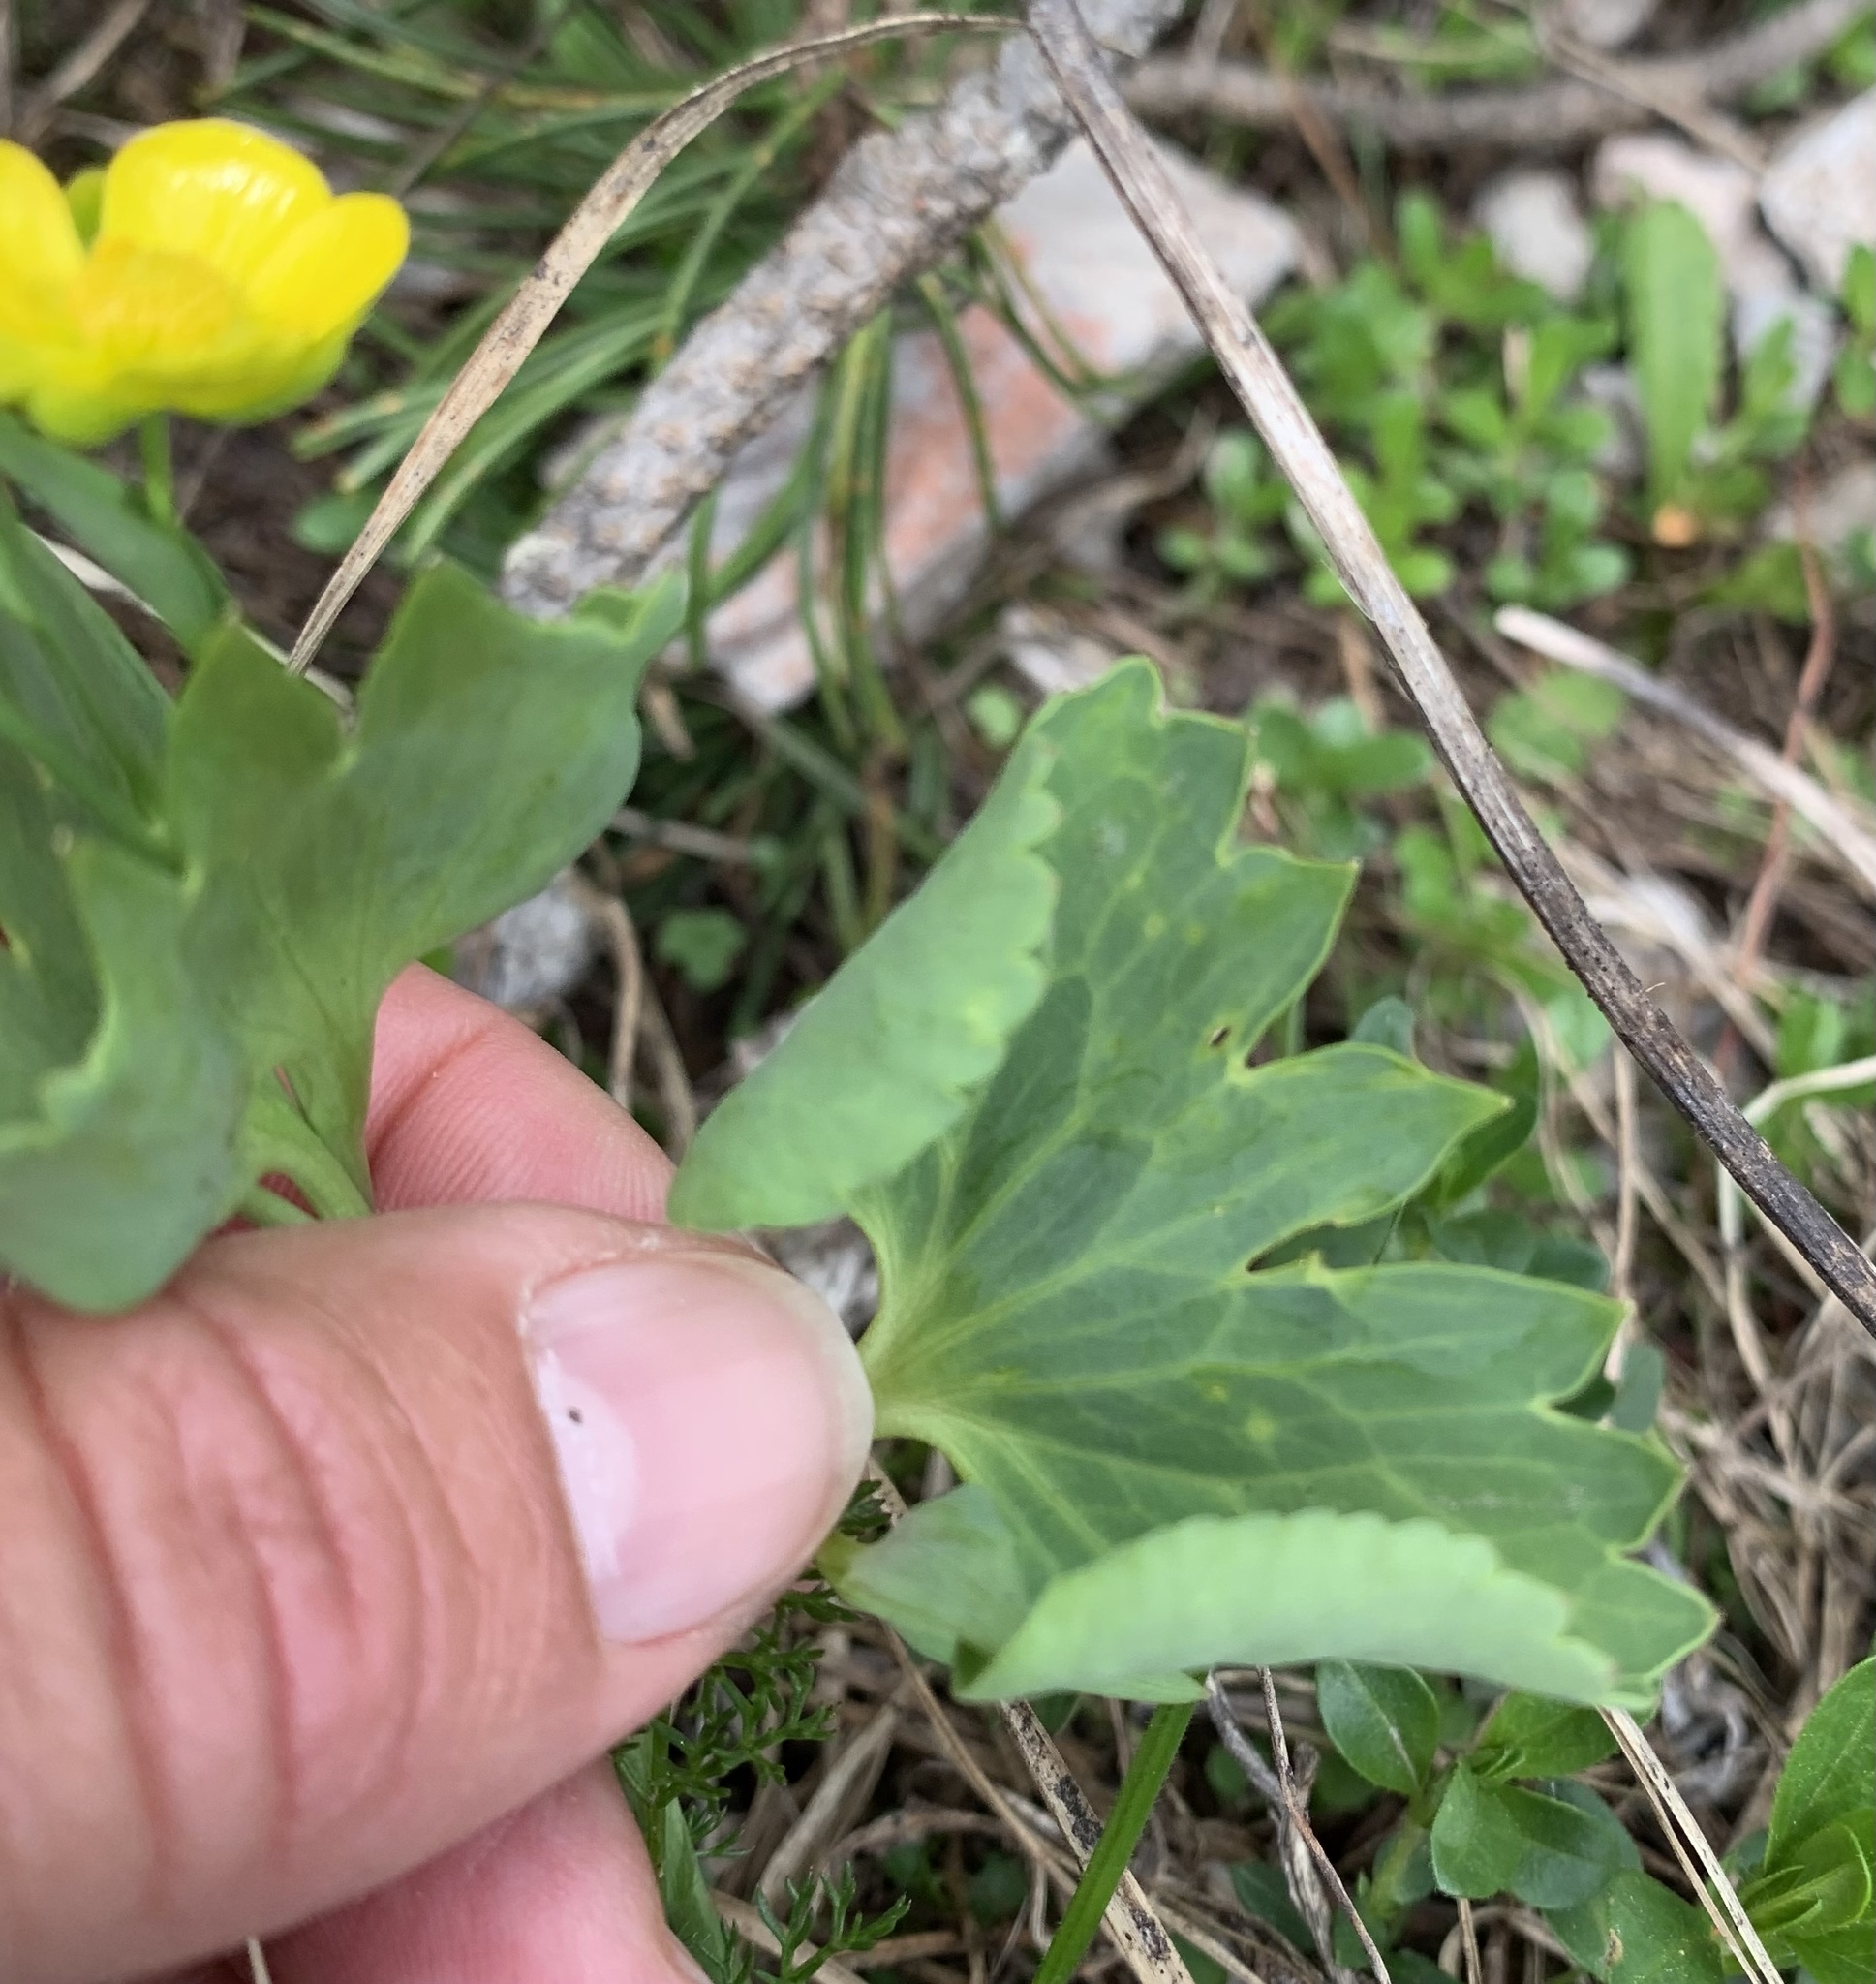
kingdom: Plantae
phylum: Tracheophyta
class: Magnoliopsida
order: Ranunculales
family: Ranunculaceae
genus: Ranunculus
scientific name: Ranunculus hybridus
